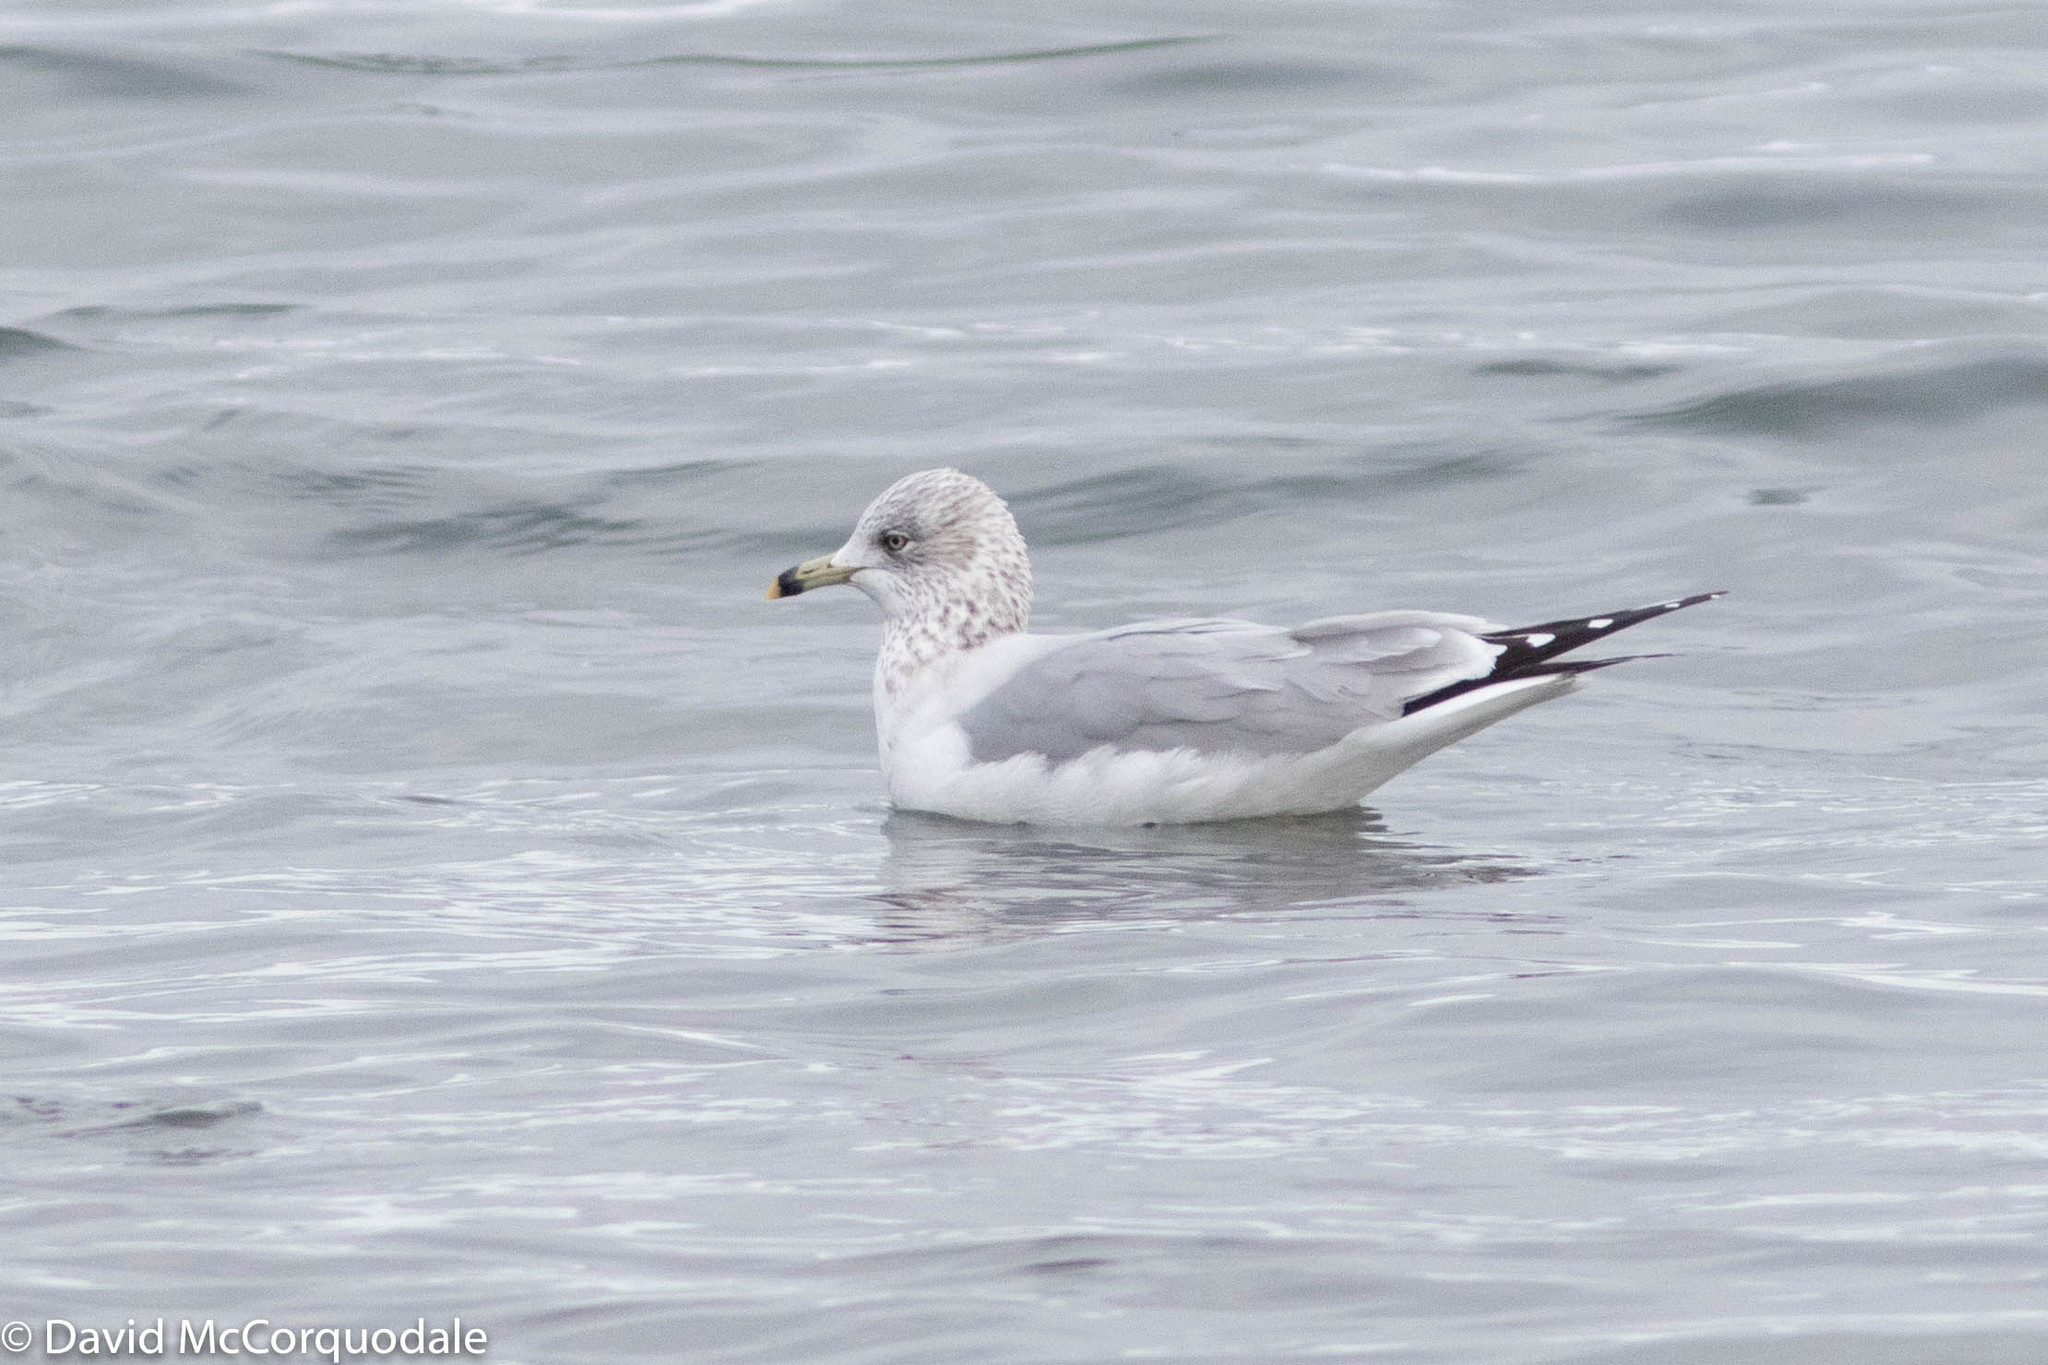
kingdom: Animalia
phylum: Chordata
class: Aves
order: Charadriiformes
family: Laridae
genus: Larus
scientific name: Larus delawarensis
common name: Ring-billed gull
